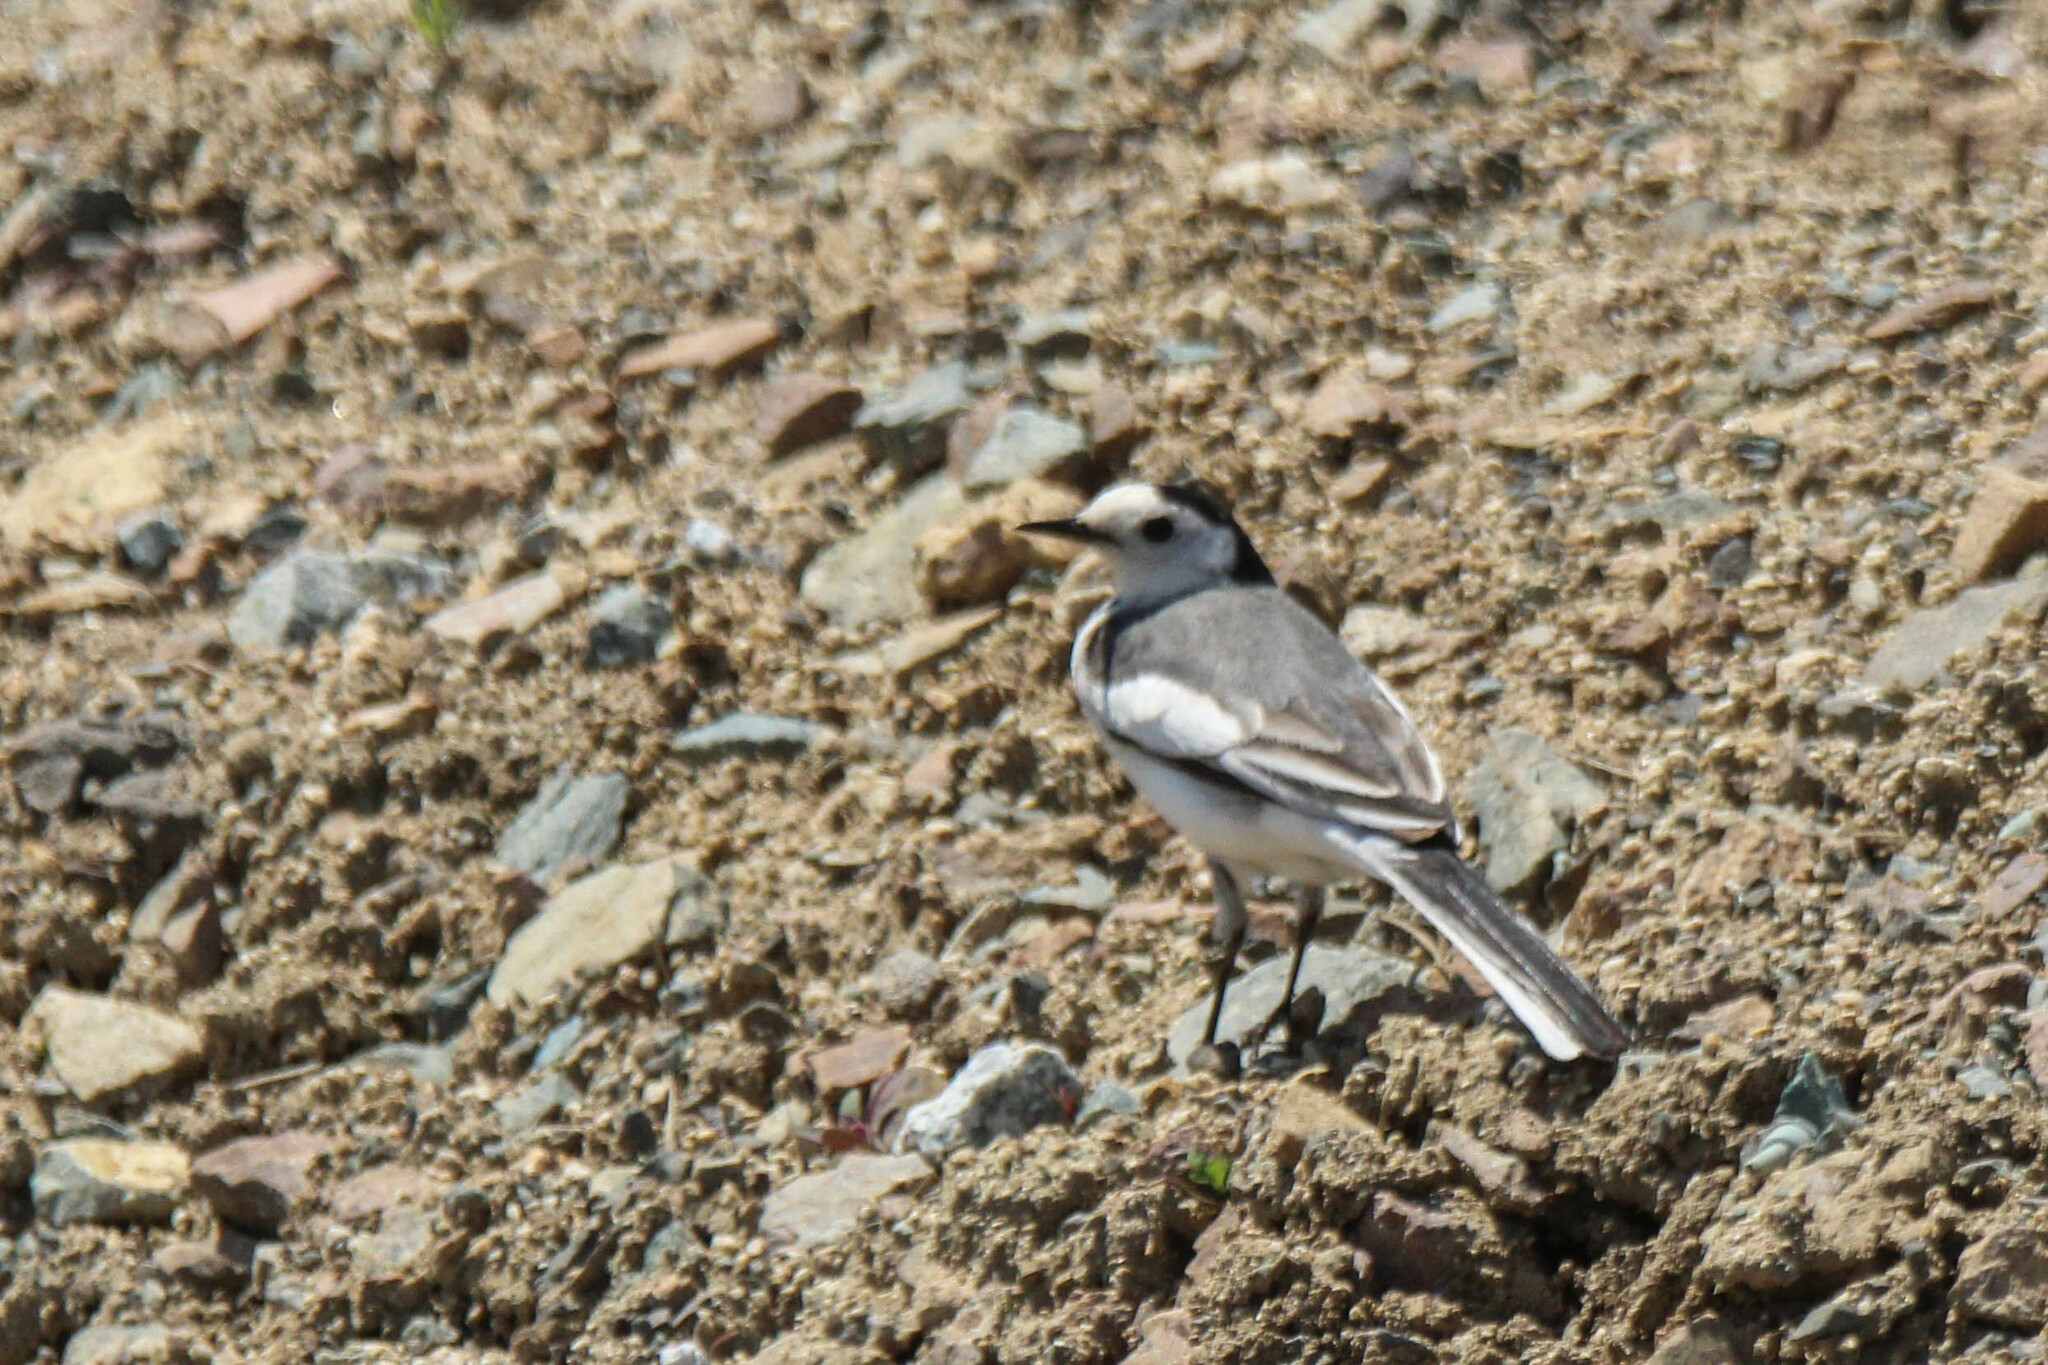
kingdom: Animalia
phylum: Chordata
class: Aves
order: Passeriformes
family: Motacillidae
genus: Motacilla
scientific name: Motacilla alba
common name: White wagtail
